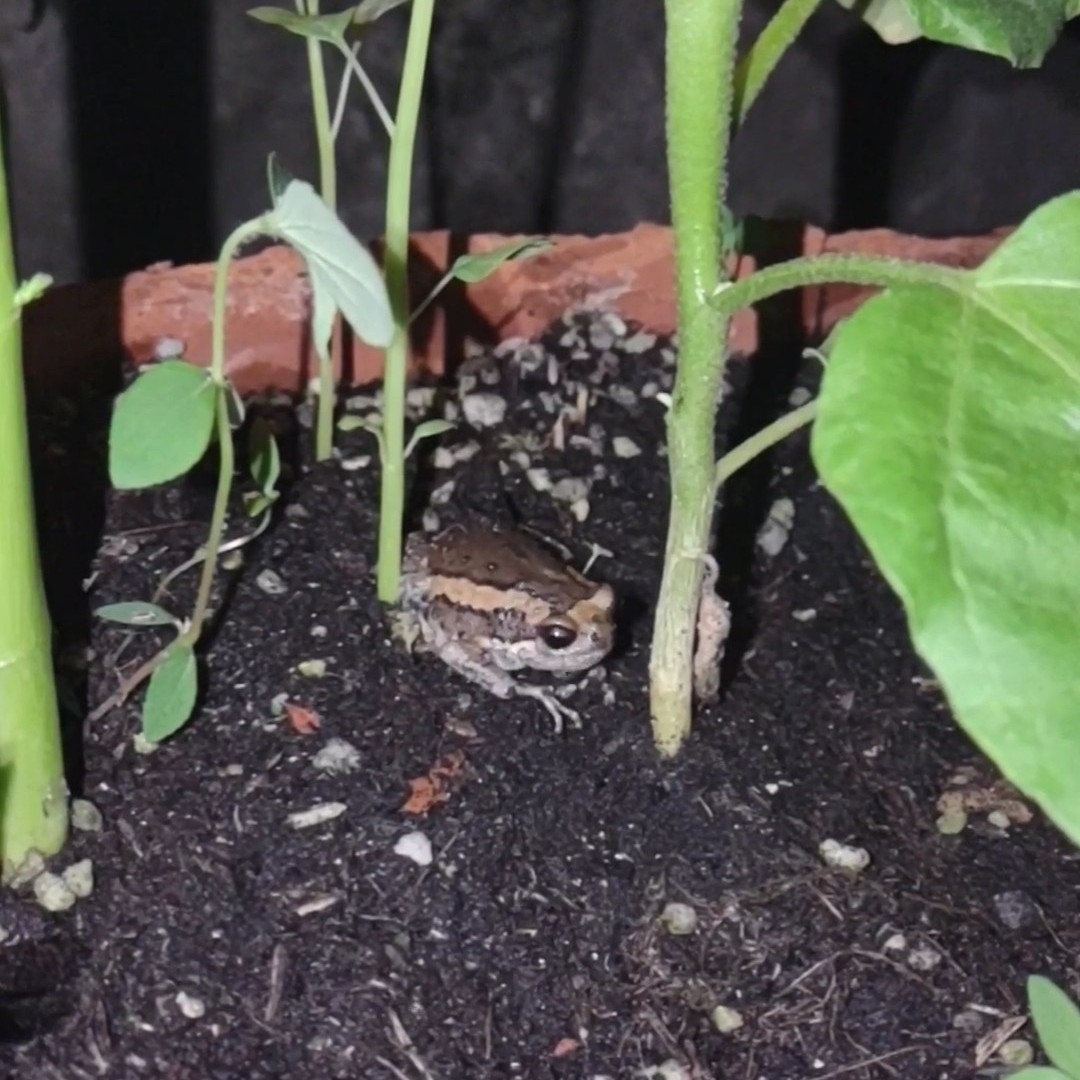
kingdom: Animalia
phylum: Chordata
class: Amphibia
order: Anura
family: Microhylidae
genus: Kaloula
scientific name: Kaloula pulchra
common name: Common,banded bullfrog
